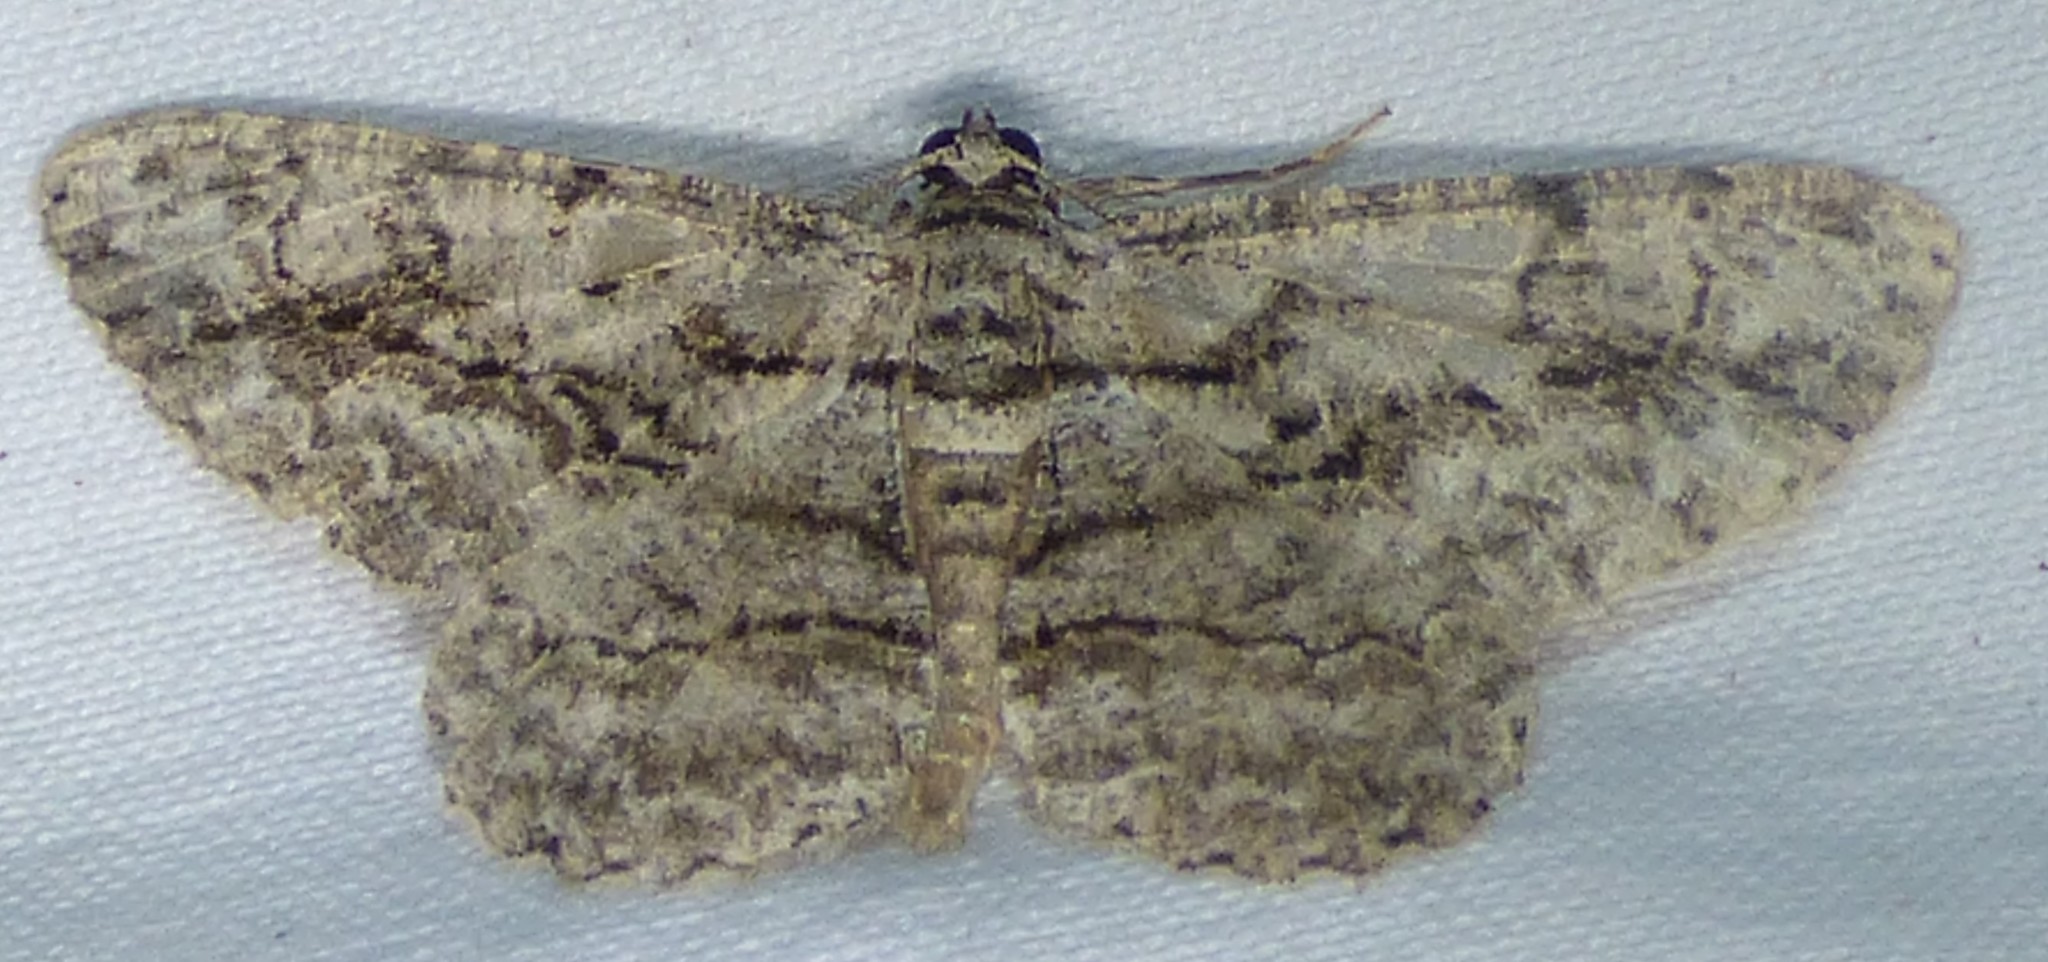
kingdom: Animalia
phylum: Arthropoda
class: Insecta
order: Lepidoptera
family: Geometridae
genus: Anavitrinella
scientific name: Anavitrinella pampinaria
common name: Common gray
